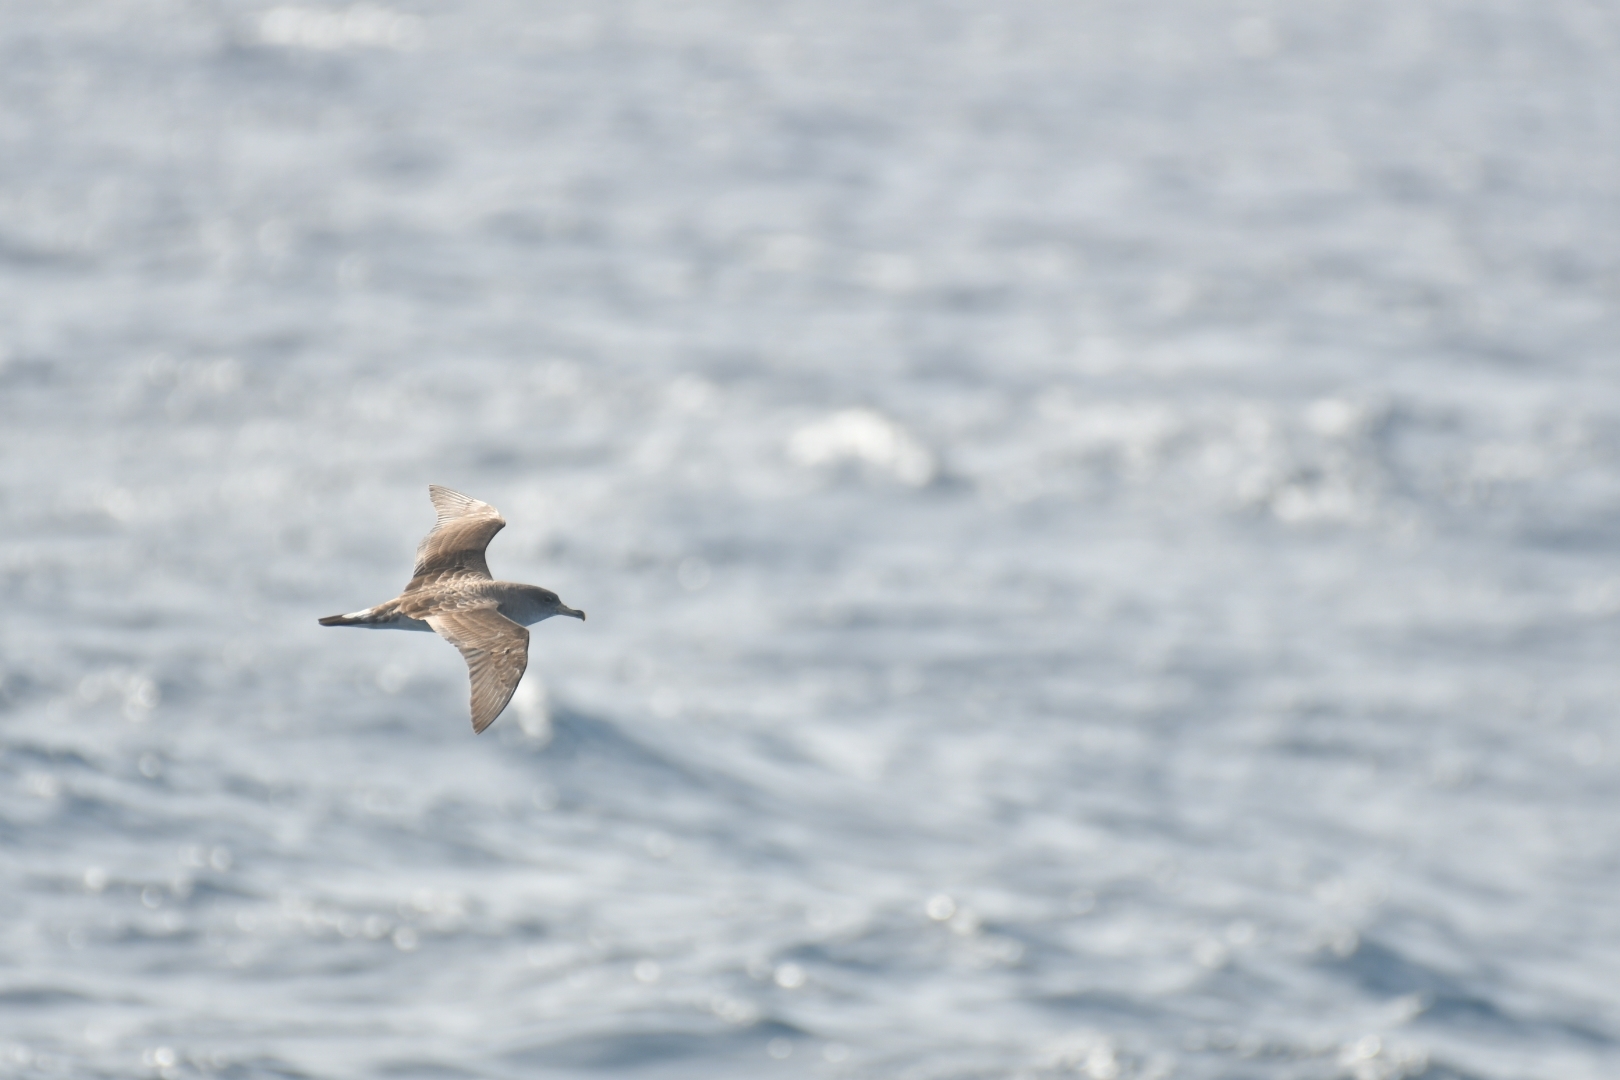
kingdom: Animalia
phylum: Chordata
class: Aves
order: Procellariiformes
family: Procellariidae
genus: Calonectris
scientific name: Calonectris diomedea
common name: Cory's shearwater
